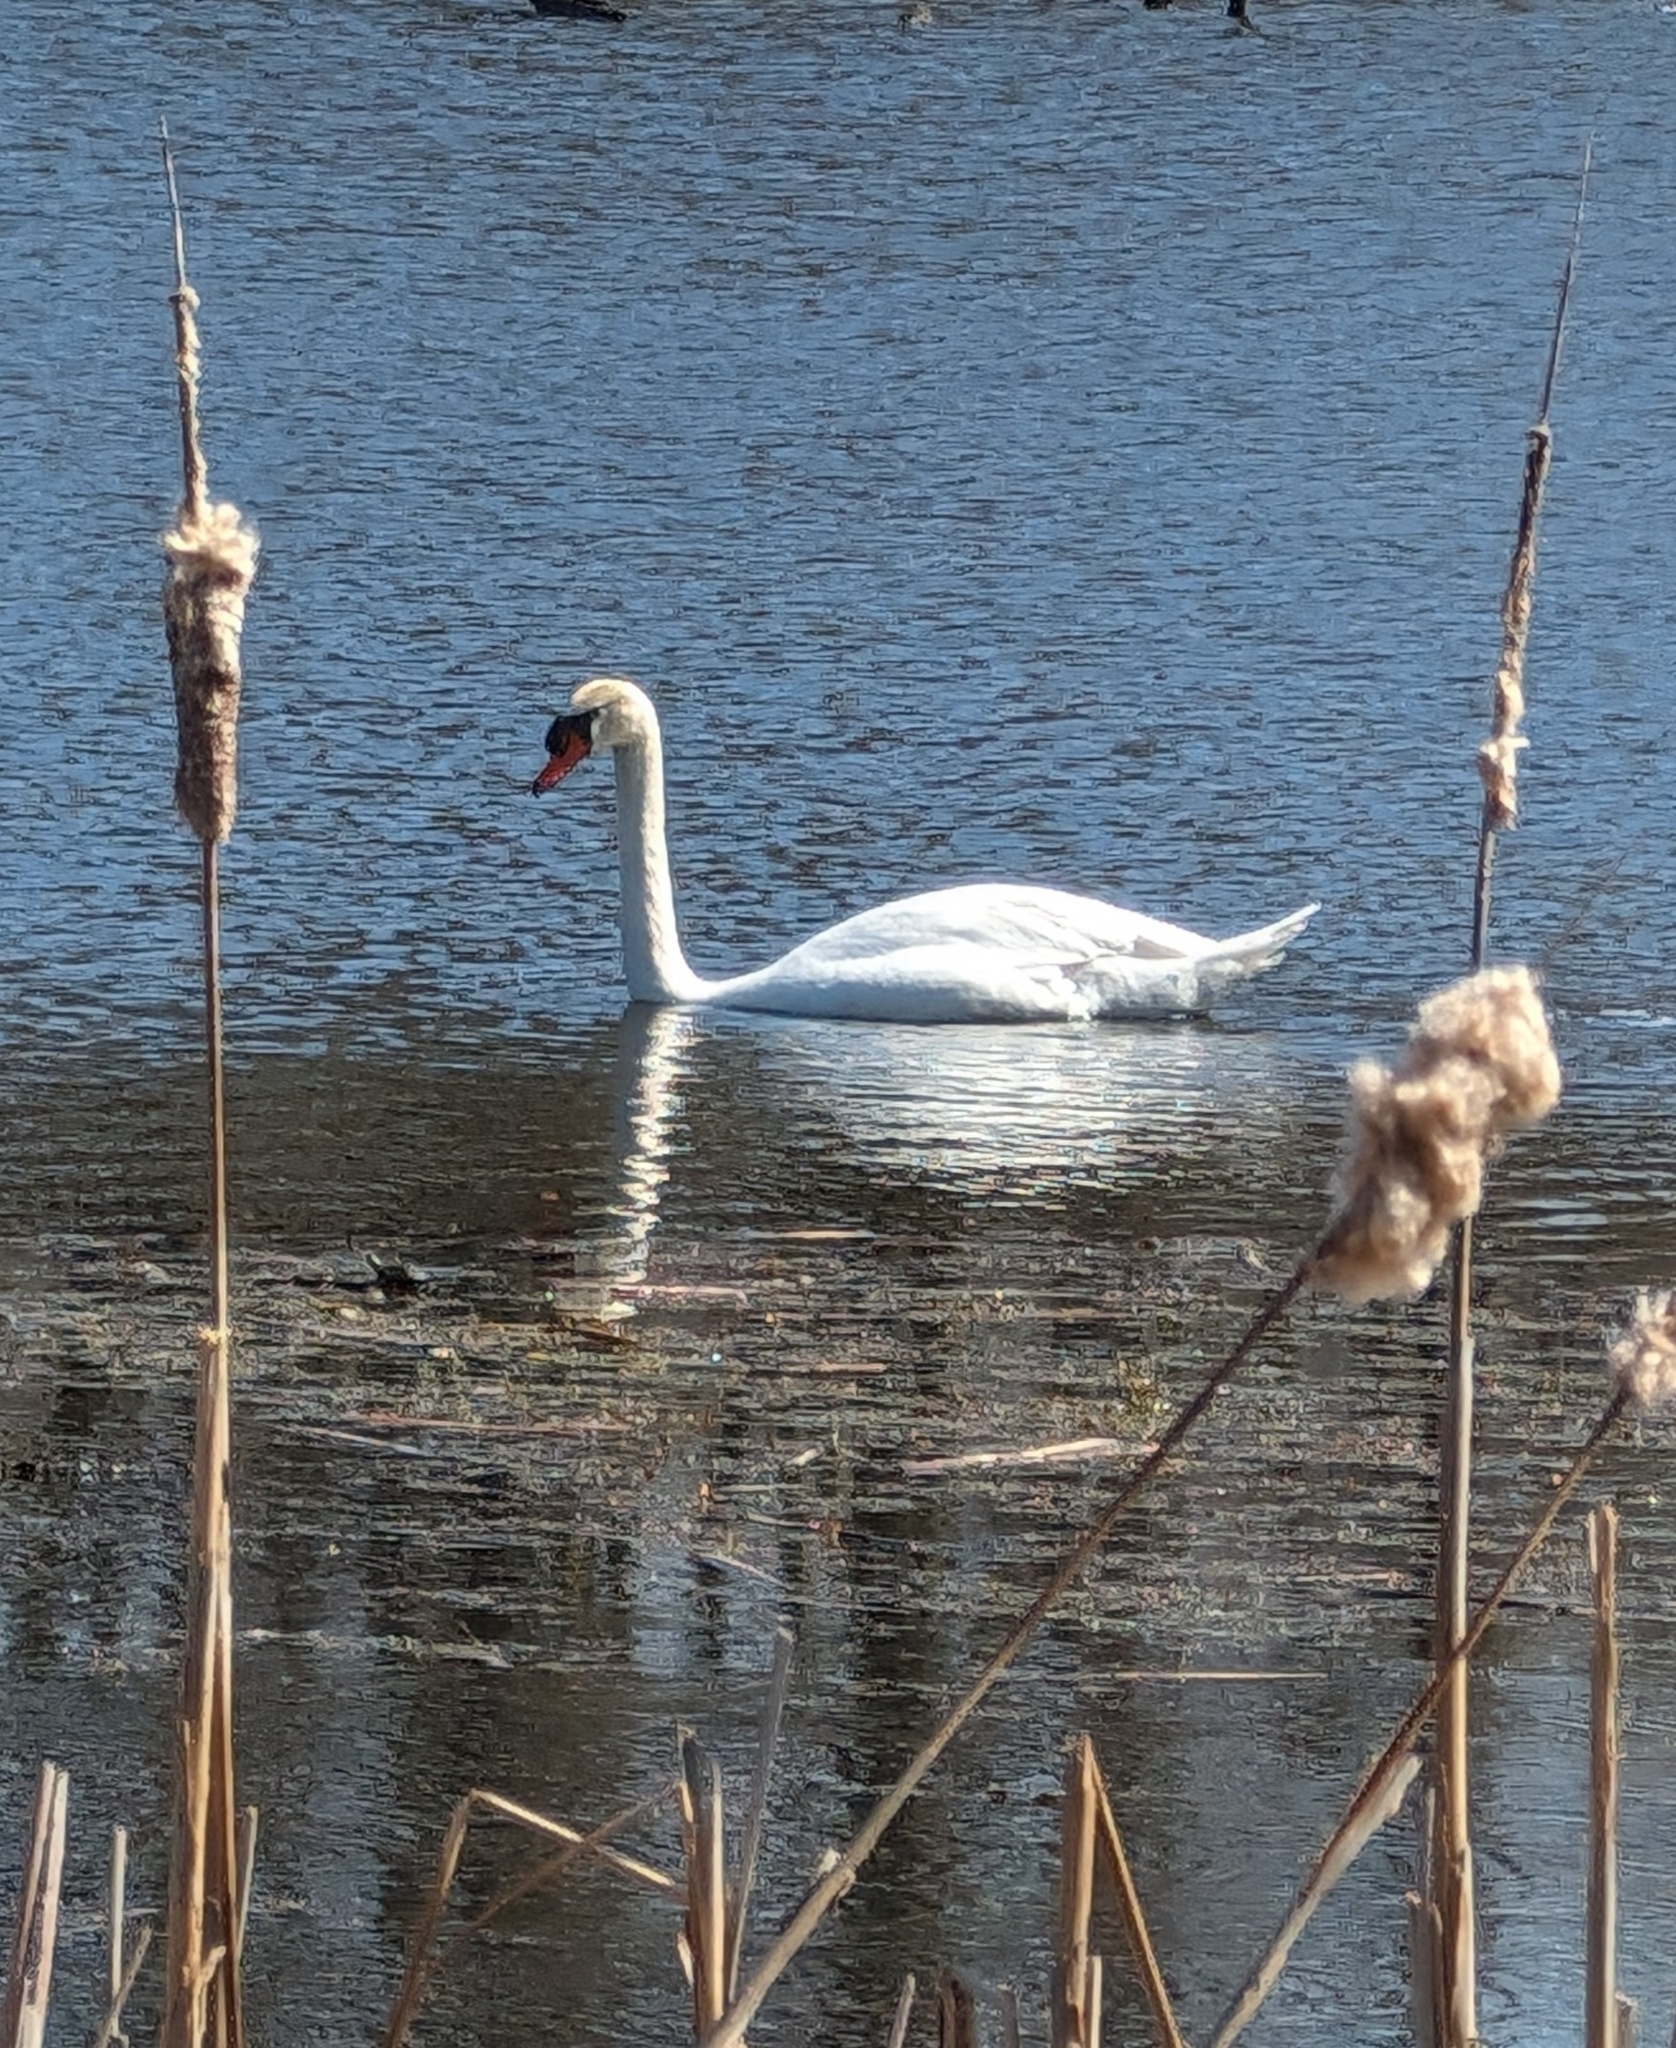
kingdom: Animalia
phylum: Chordata
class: Aves
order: Anseriformes
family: Anatidae
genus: Cygnus
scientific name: Cygnus olor
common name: Mute swan
